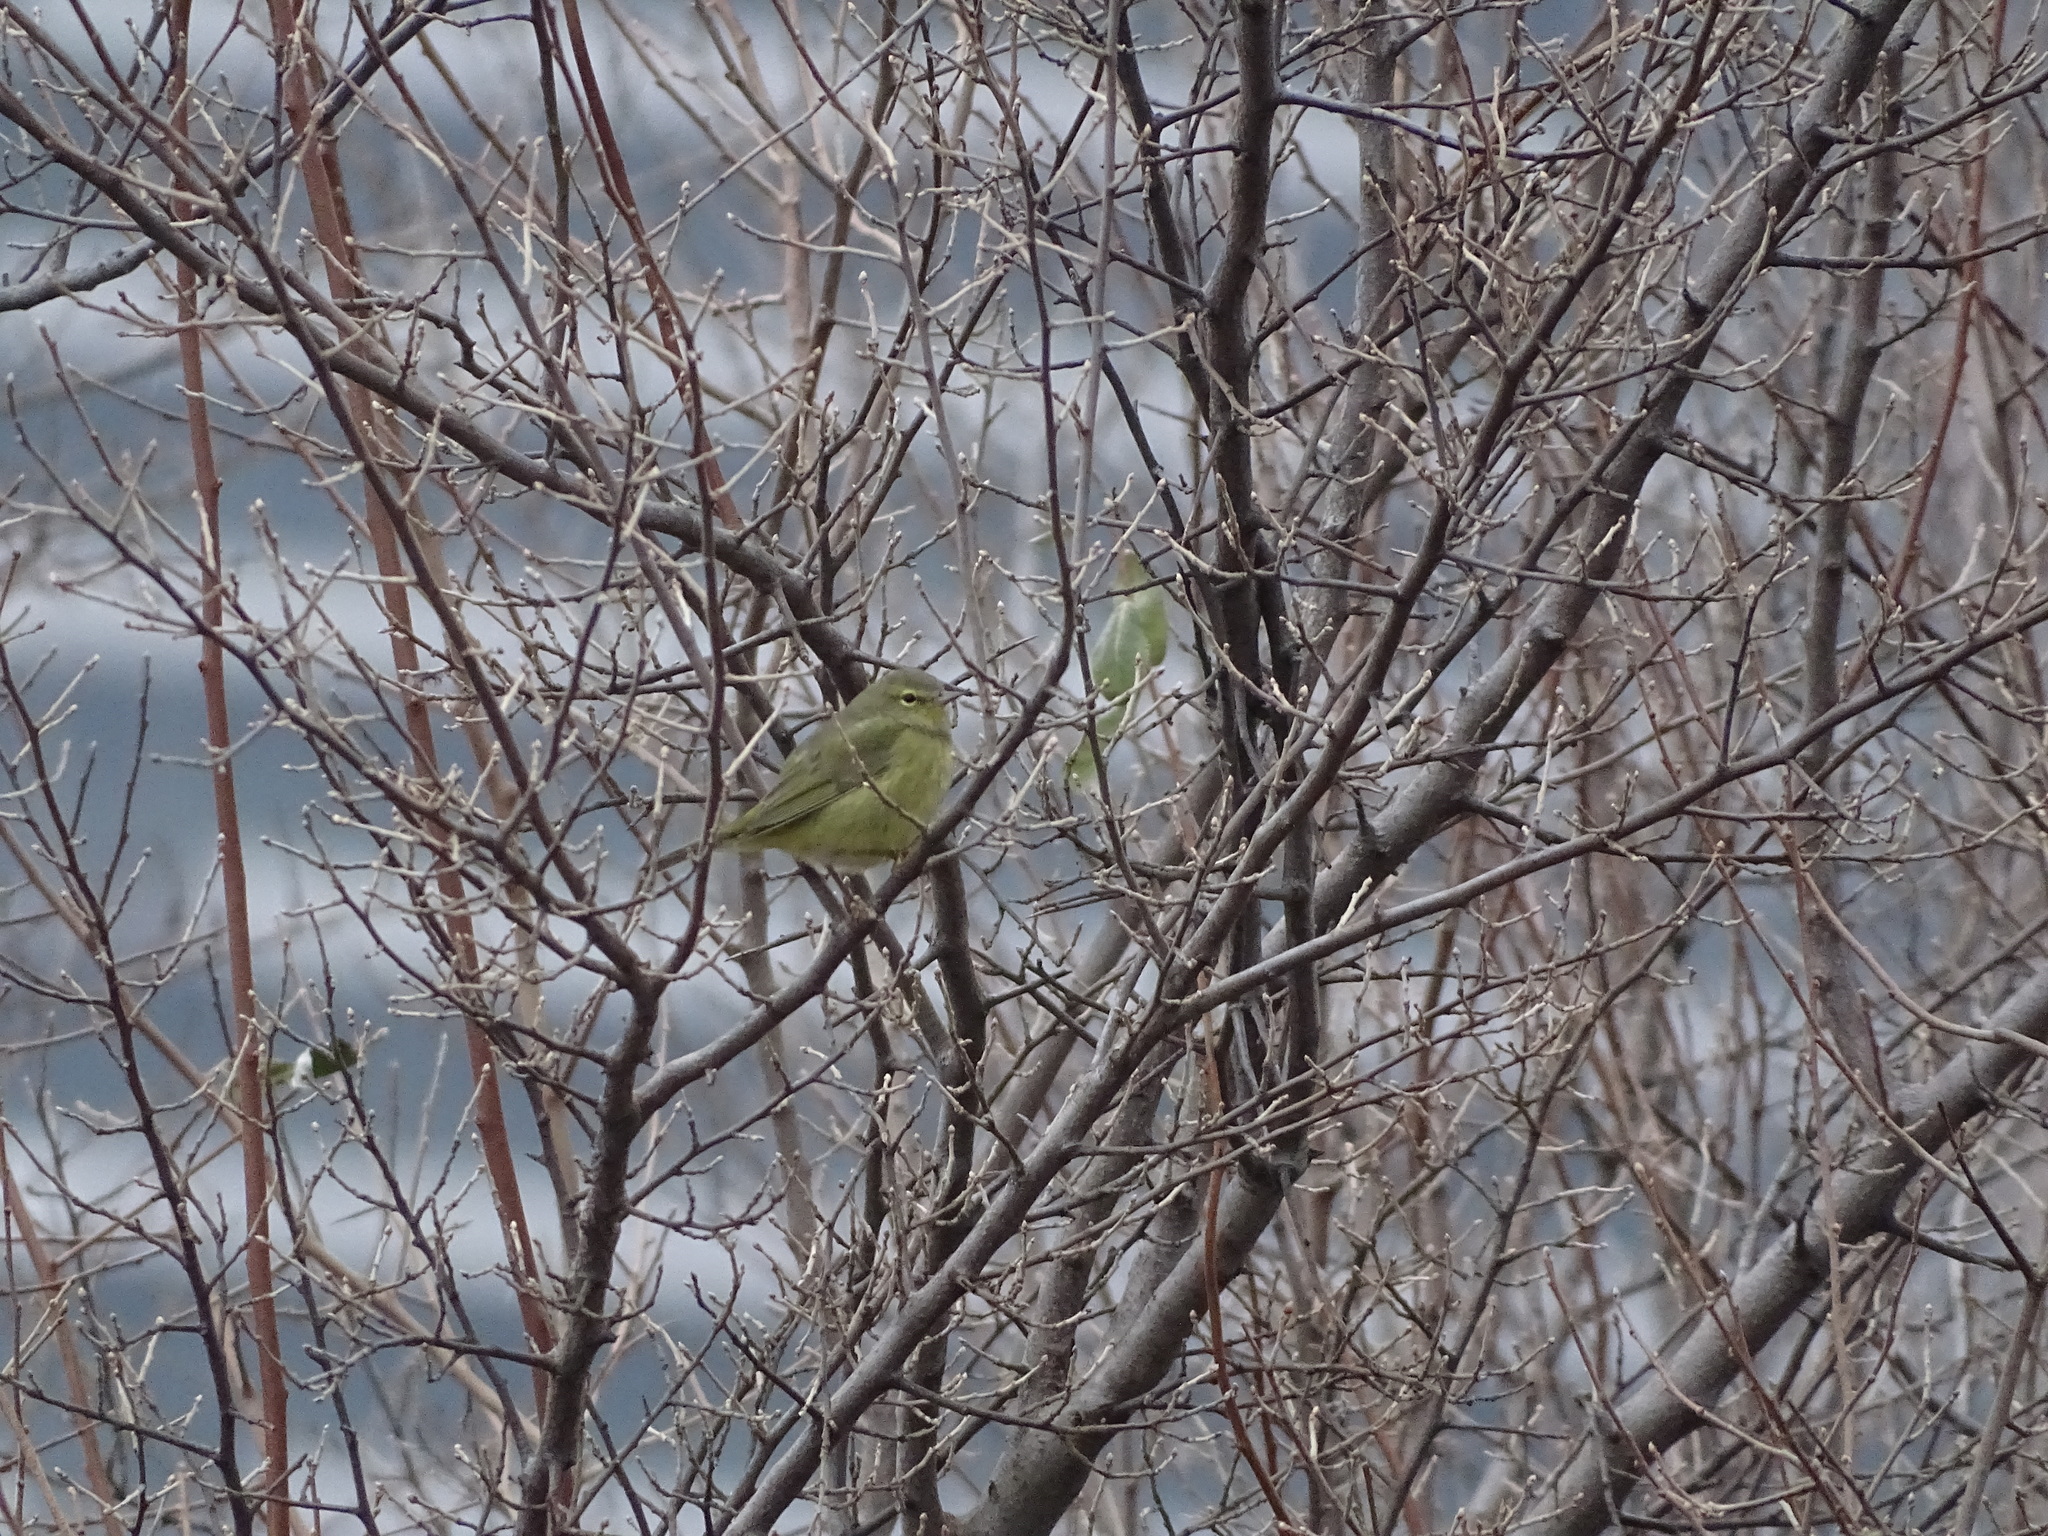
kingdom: Animalia
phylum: Chordata
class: Aves
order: Passeriformes
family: Parulidae
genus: Leiothlypis
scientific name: Leiothlypis celata
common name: Orange-crowned warbler
